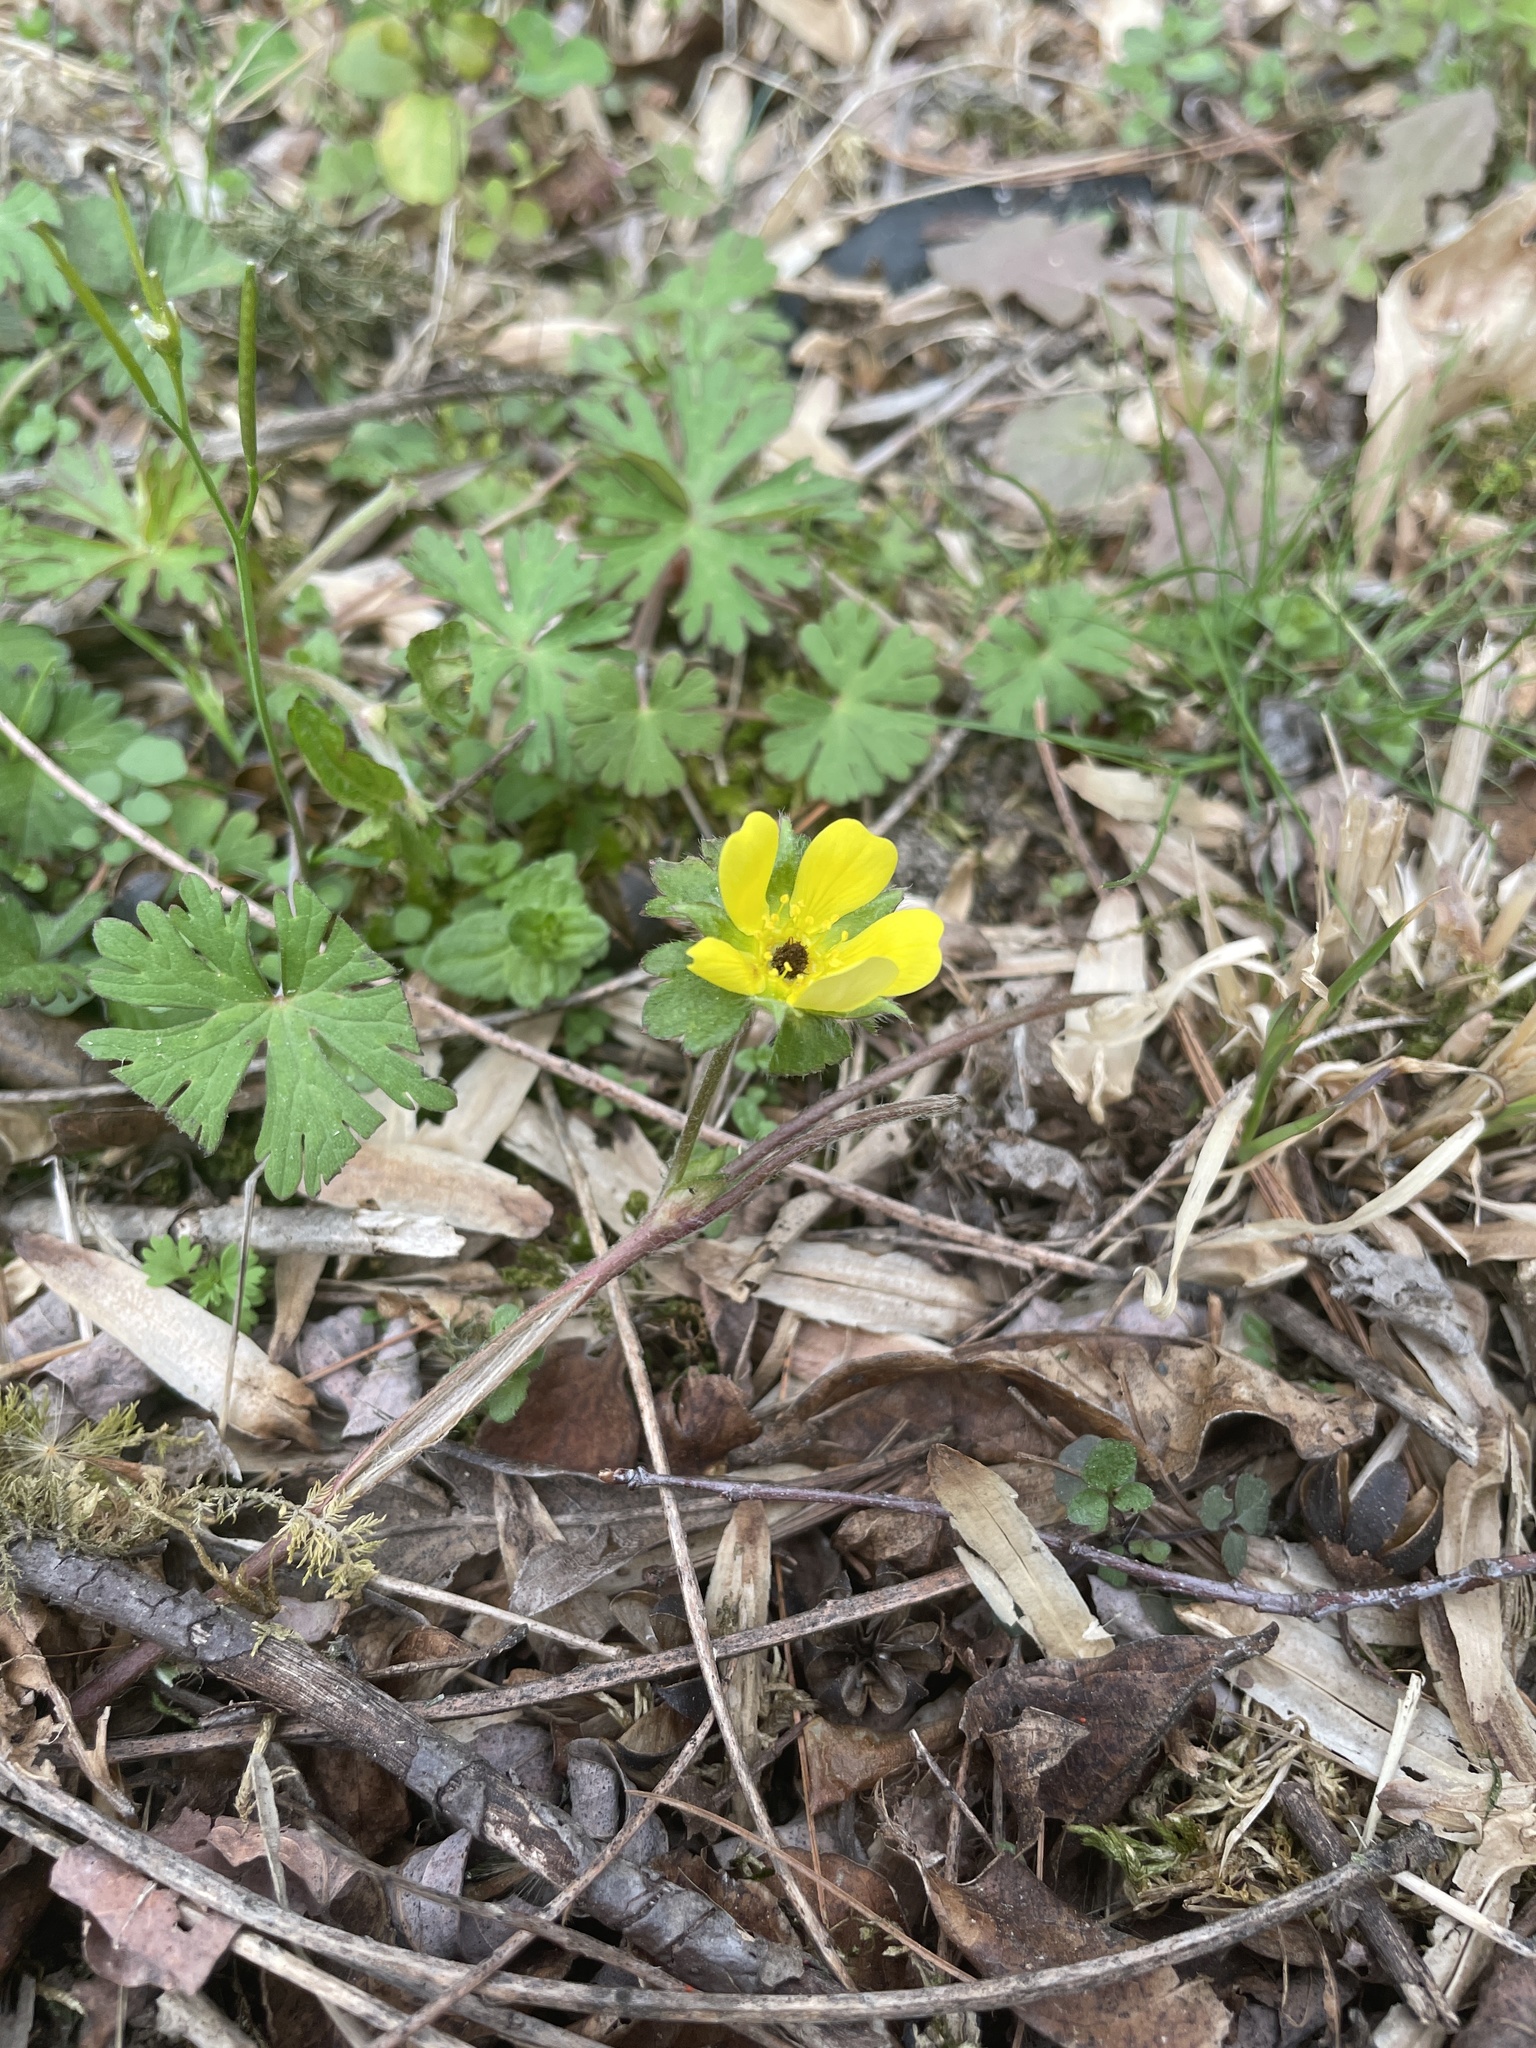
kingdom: Plantae
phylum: Tracheophyta
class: Magnoliopsida
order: Rosales
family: Rosaceae
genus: Potentilla
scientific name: Potentilla indica
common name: Yellow-flowered strawberry
